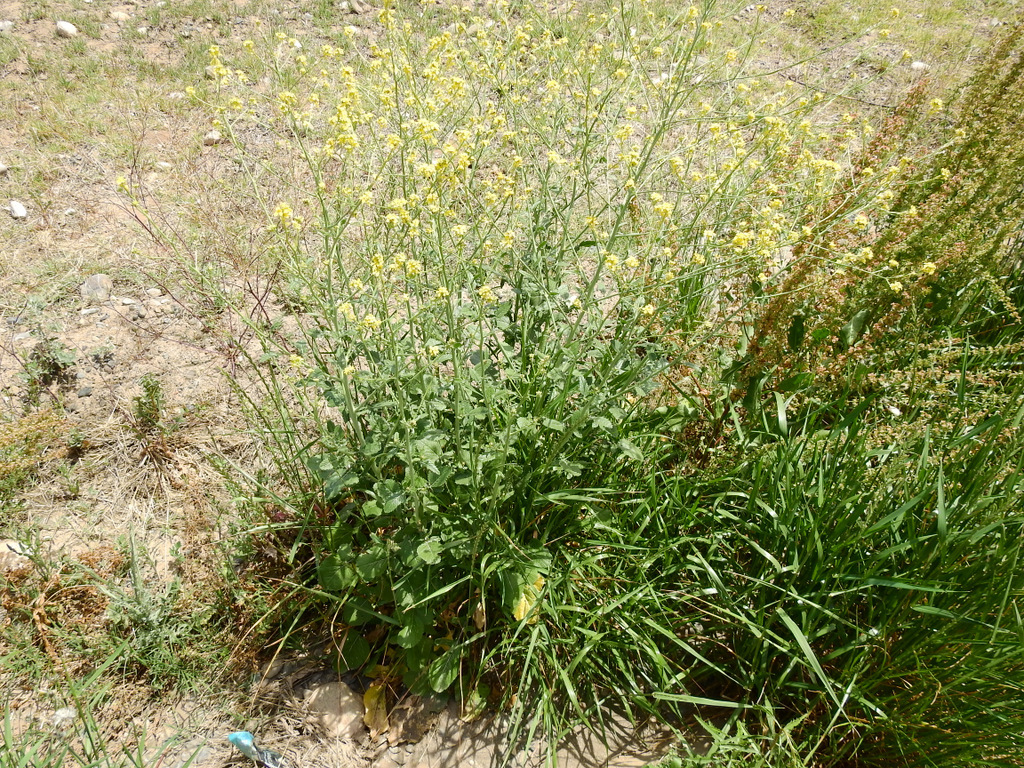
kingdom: Plantae
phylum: Tracheophyta
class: Magnoliopsida
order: Brassicales
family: Brassicaceae
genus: Hirschfeldia
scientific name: Hirschfeldia incana
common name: Hoary mustard
